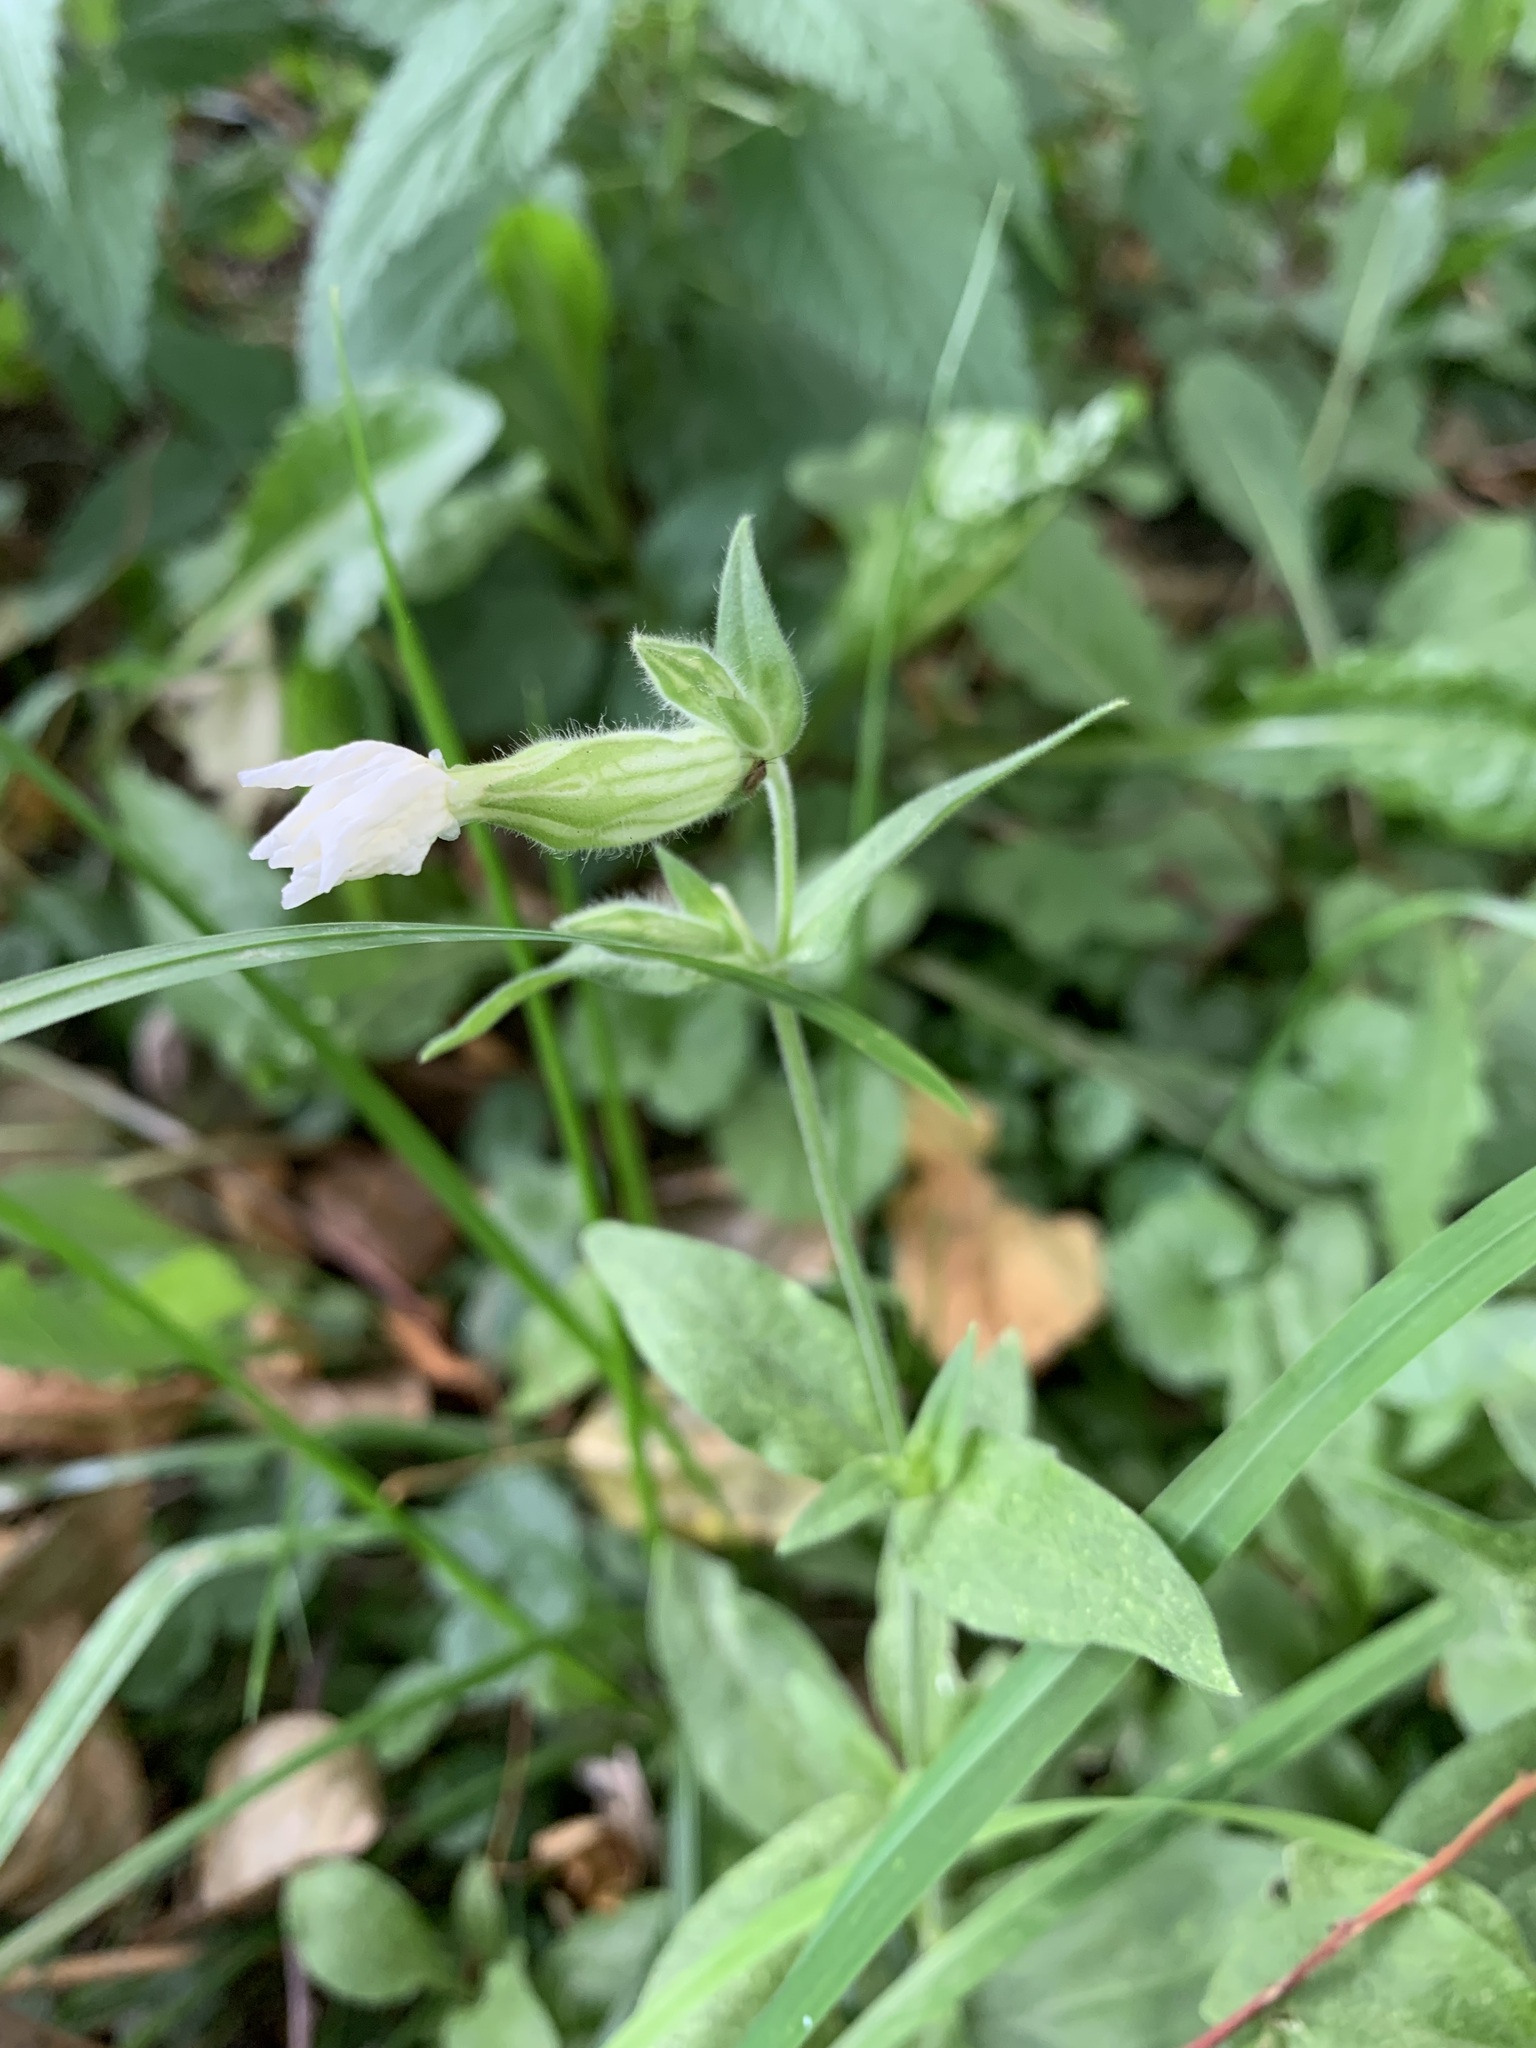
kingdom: Plantae
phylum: Tracheophyta
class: Magnoliopsida
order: Caryophyllales
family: Caryophyllaceae
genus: Silene
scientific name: Silene latifolia
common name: White campion
